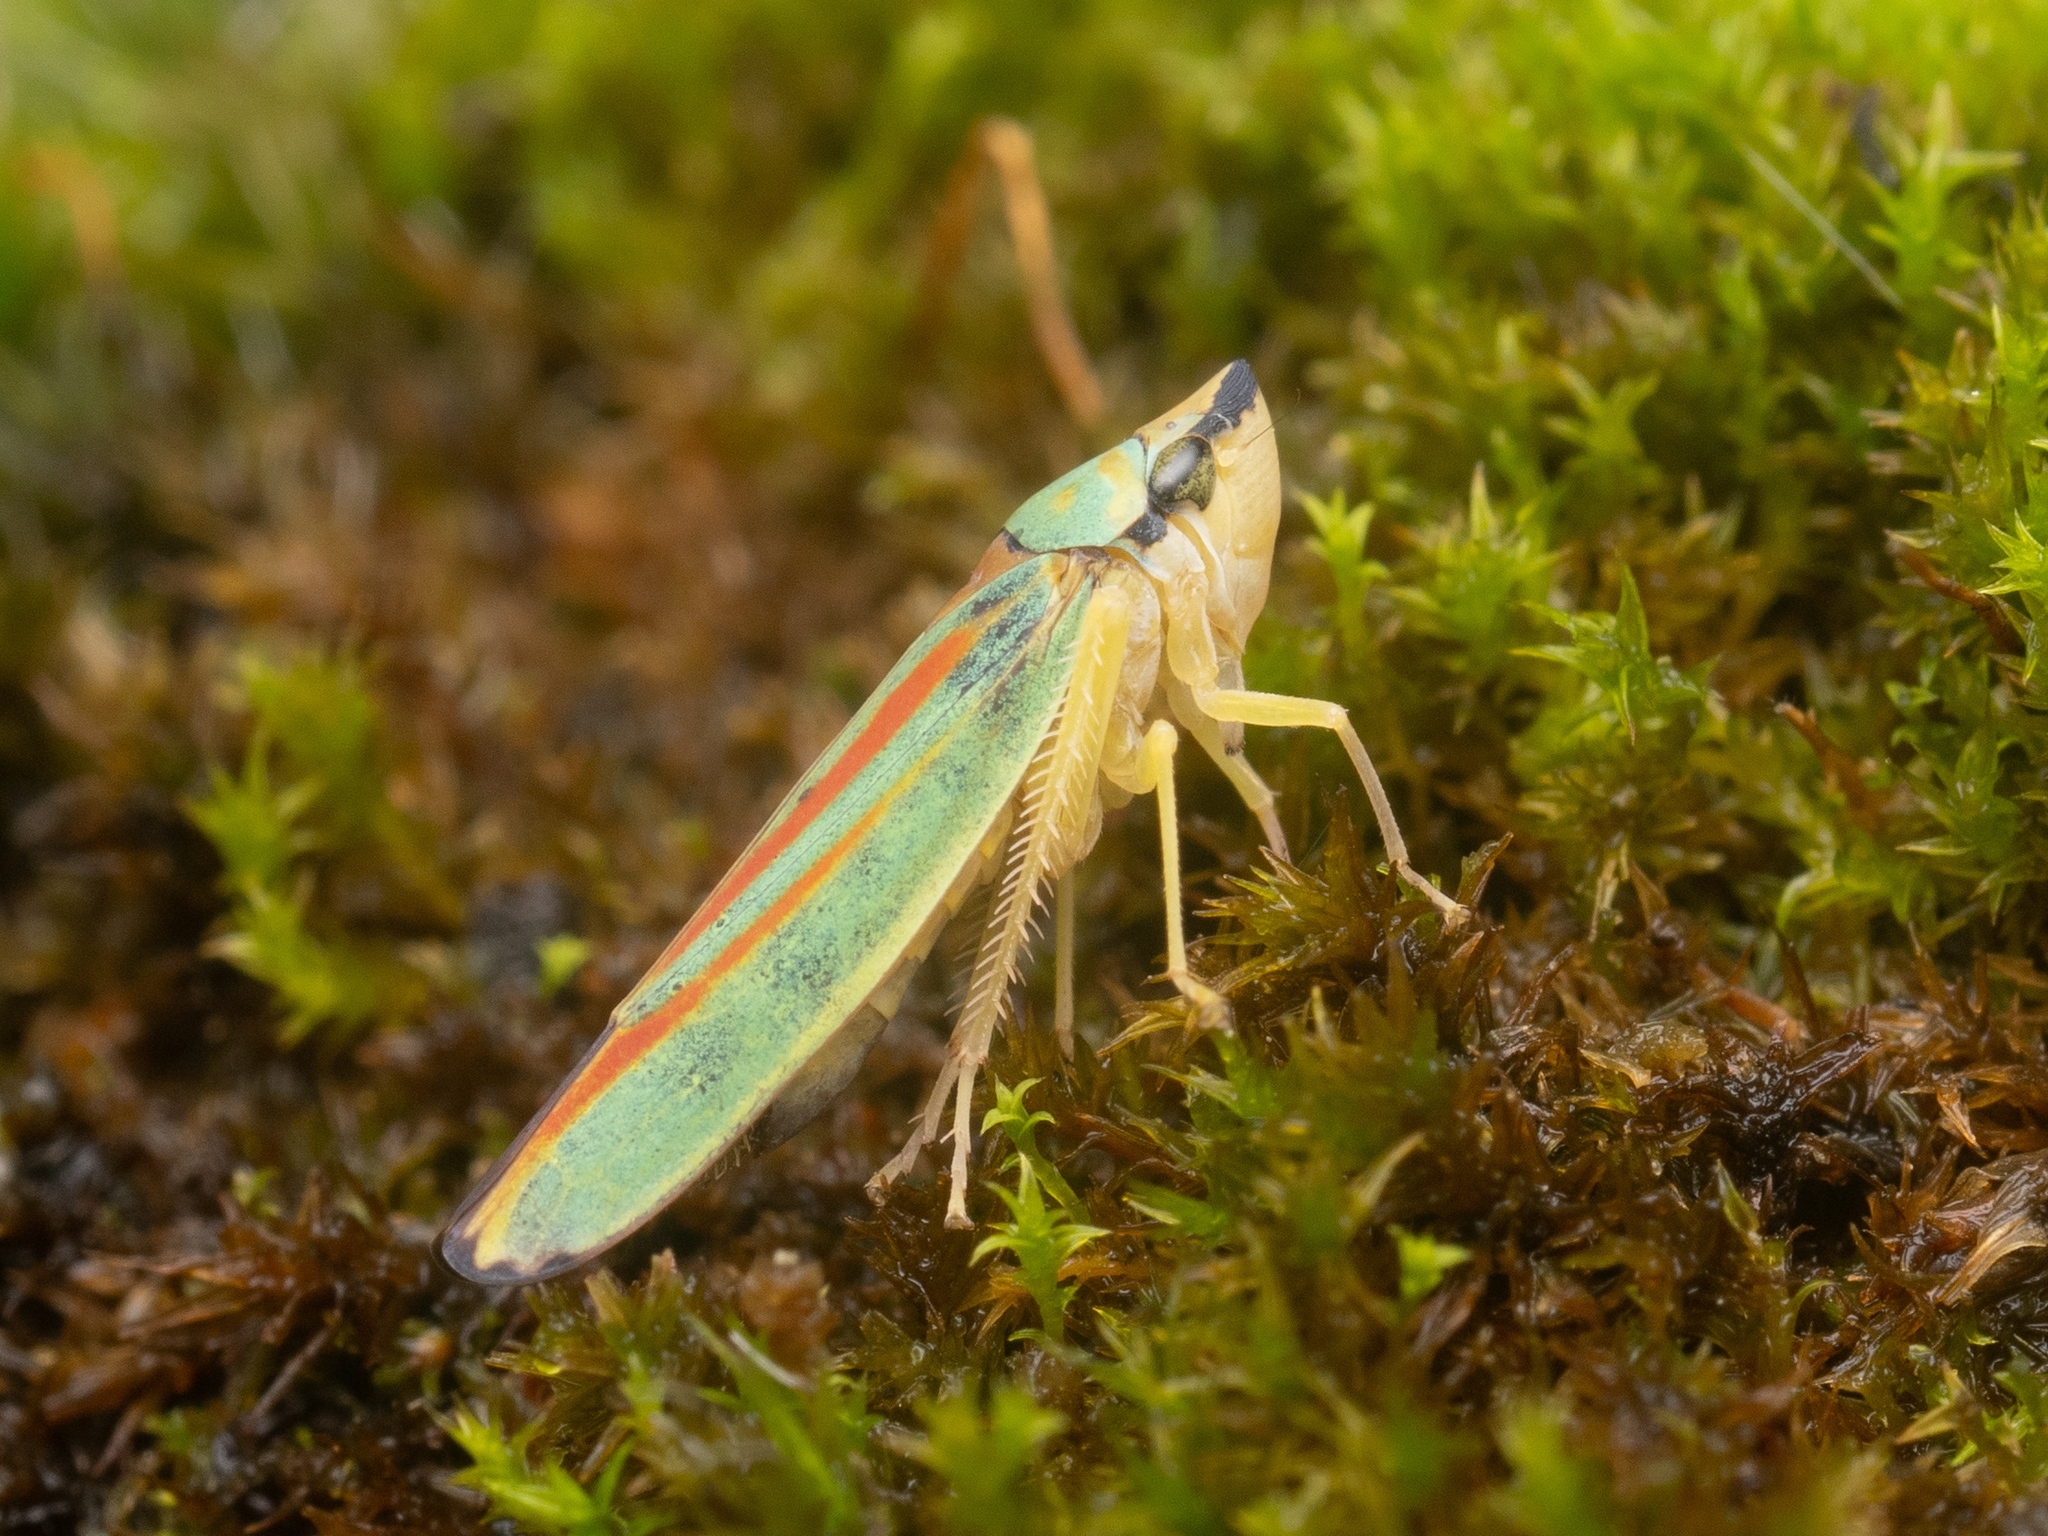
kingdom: Animalia
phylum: Arthropoda
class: Insecta
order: Hemiptera
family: Cicadellidae
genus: Graphocephala
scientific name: Graphocephala fennahi
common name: Rhododendron leafhopper
